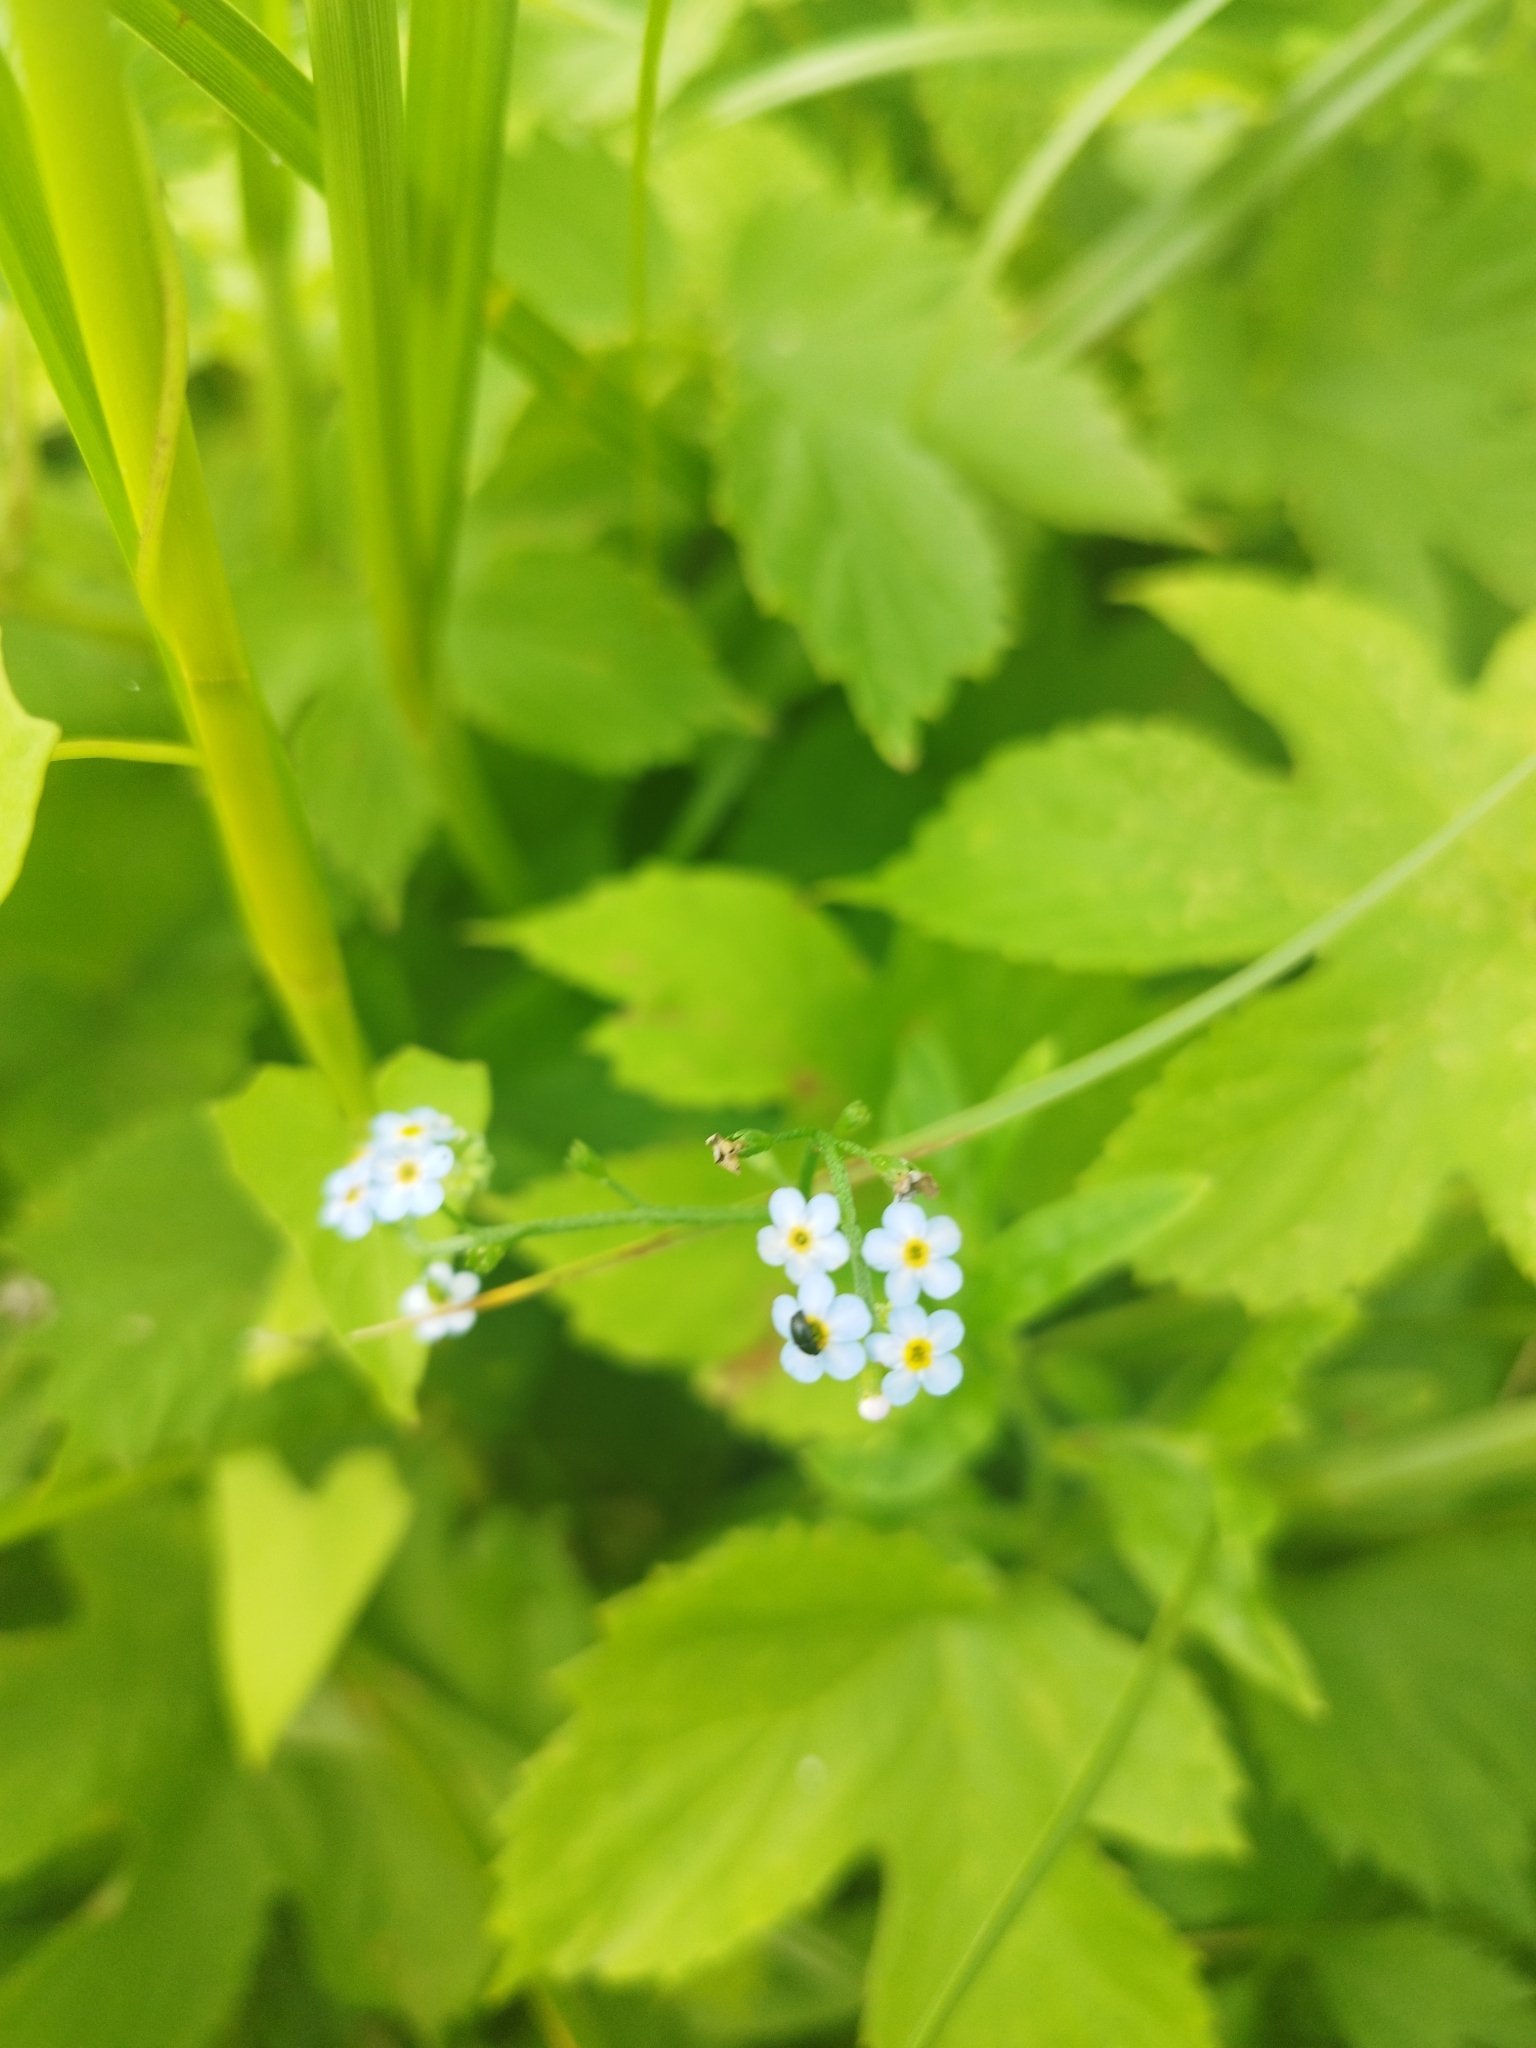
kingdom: Plantae
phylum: Tracheophyta
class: Magnoliopsida
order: Boraginales
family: Boraginaceae
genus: Myosotis
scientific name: Myosotis scorpioides
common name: Water forget-me-not
